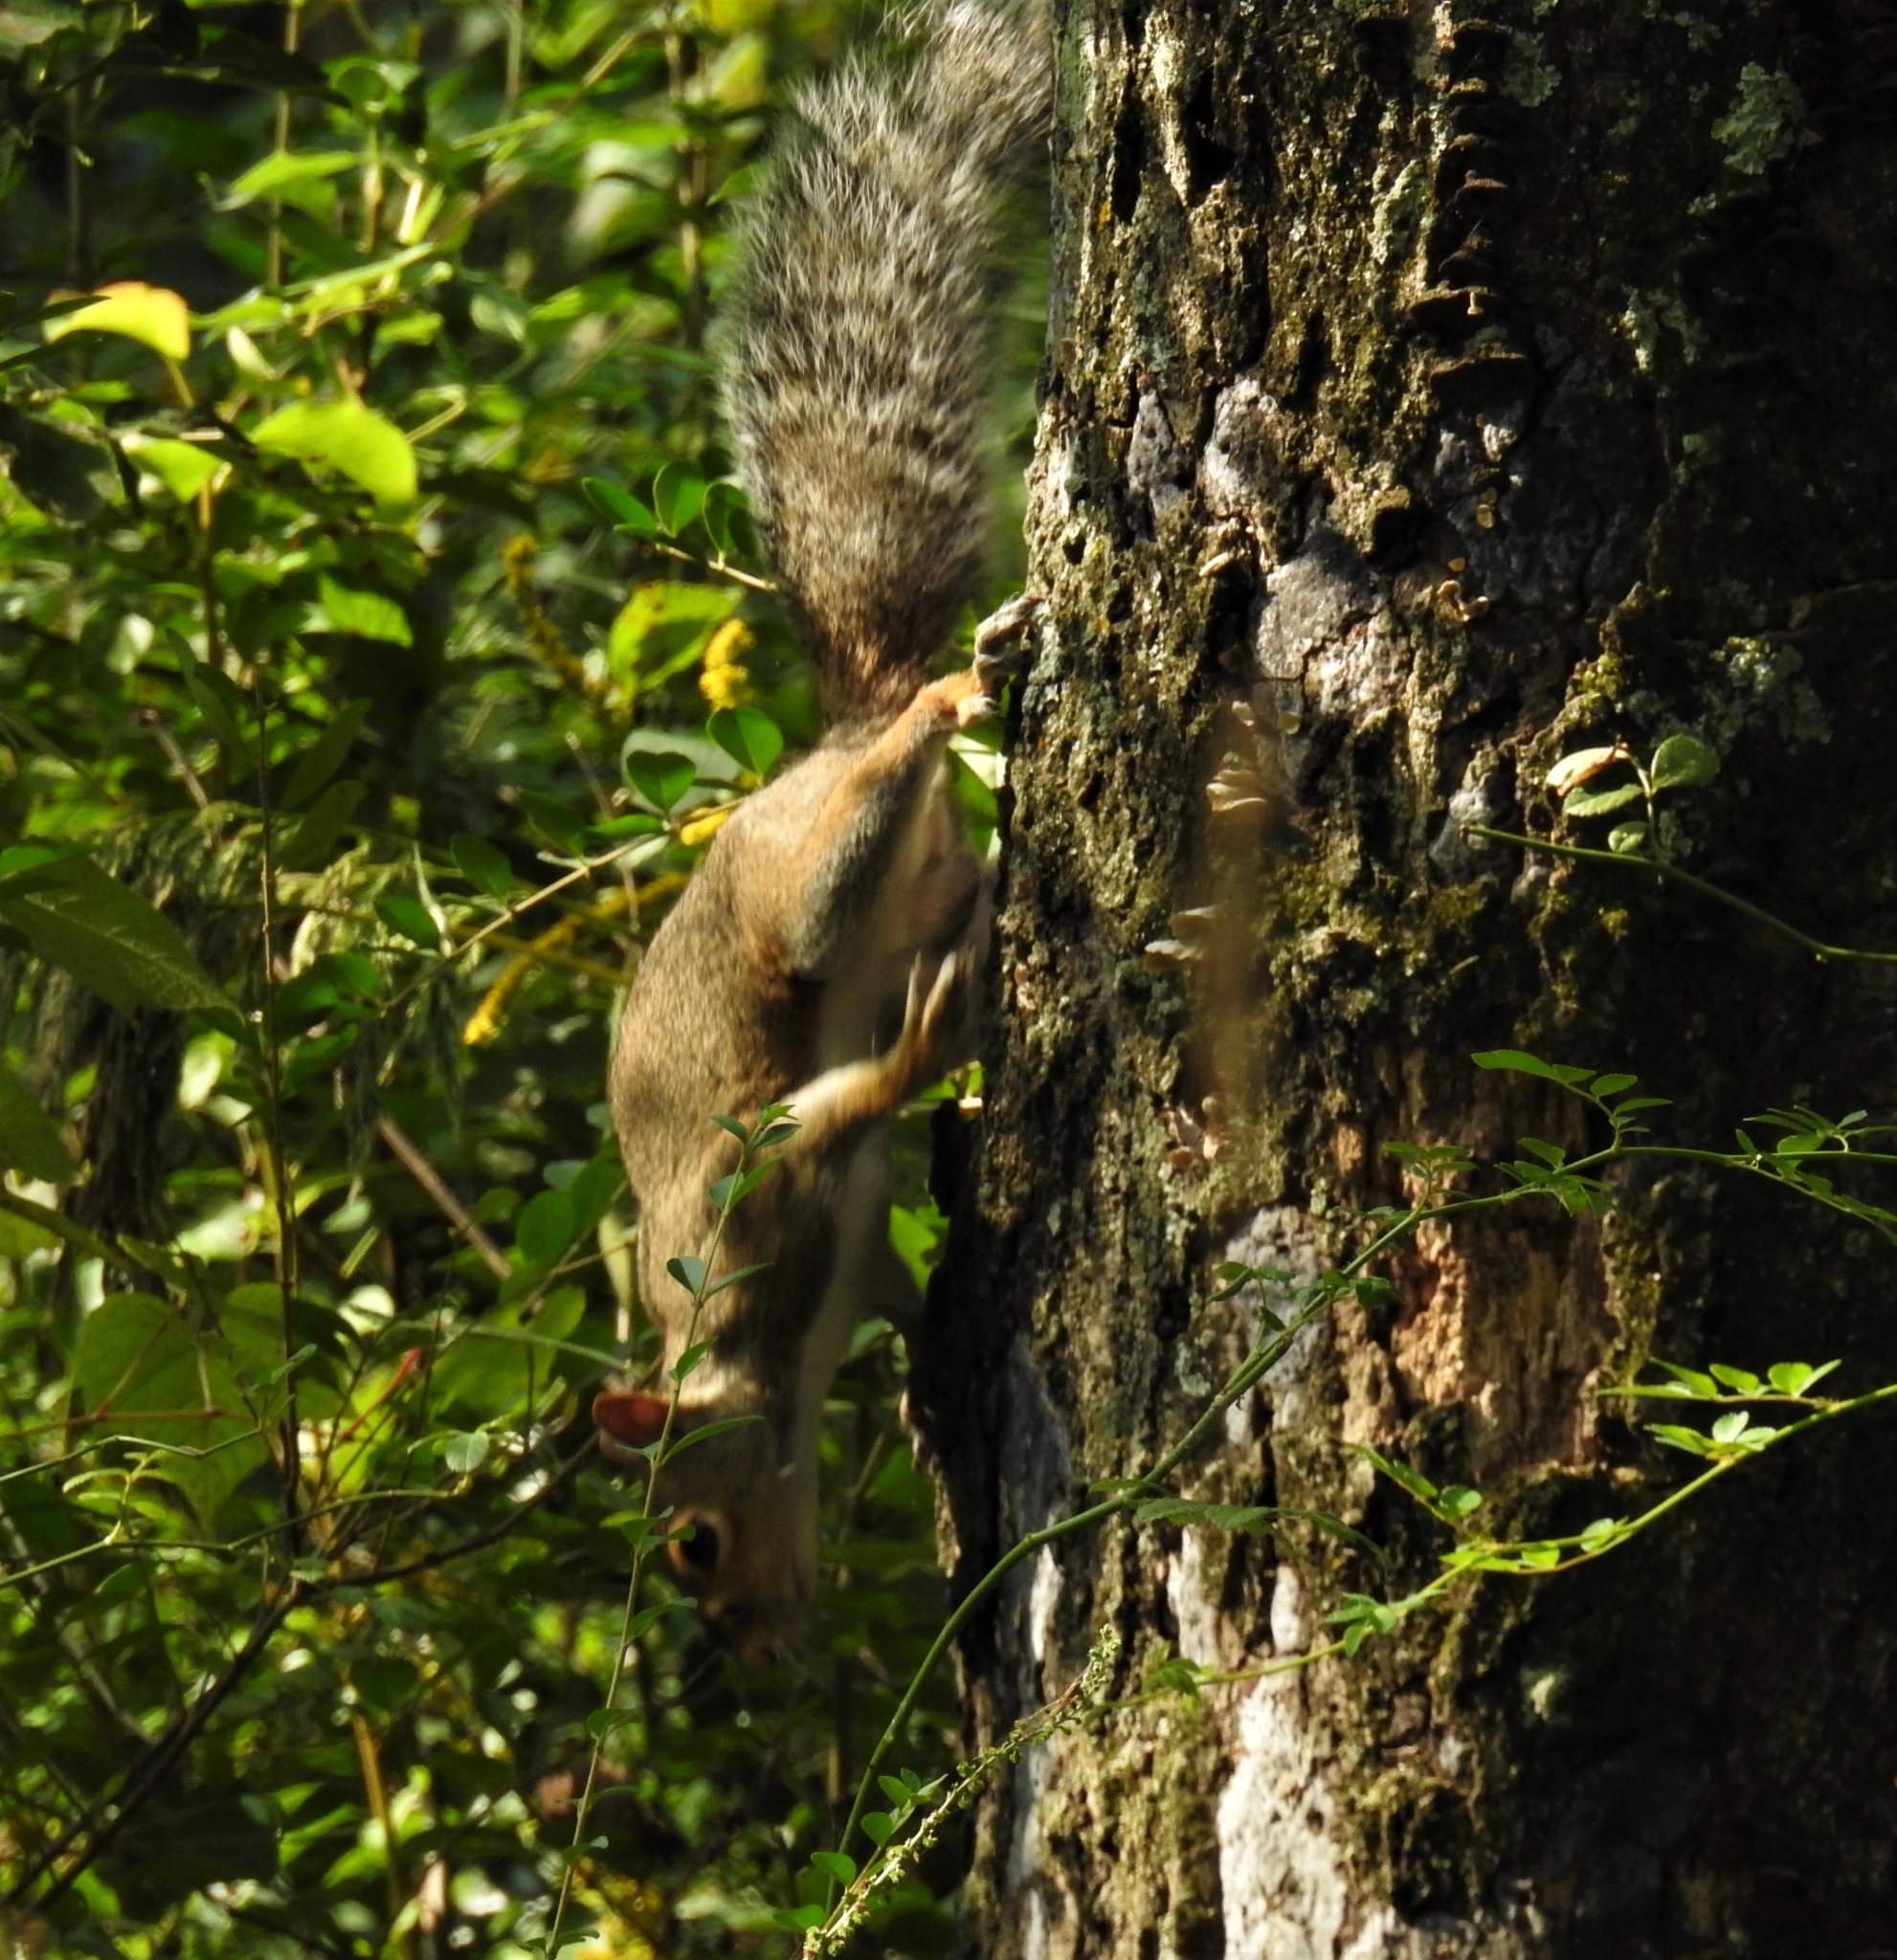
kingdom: Animalia
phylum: Chordata
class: Mammalia
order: Rodentia
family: Sciuridae
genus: Sciurus
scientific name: Sciurus carolinensis
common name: Eastern gray squirrel
